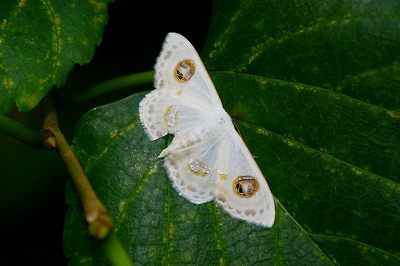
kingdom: Animalia
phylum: Arthropoda
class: Insecta
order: Lepidoptera
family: Geometridae
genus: Problepsis
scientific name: Problepsis albidior
